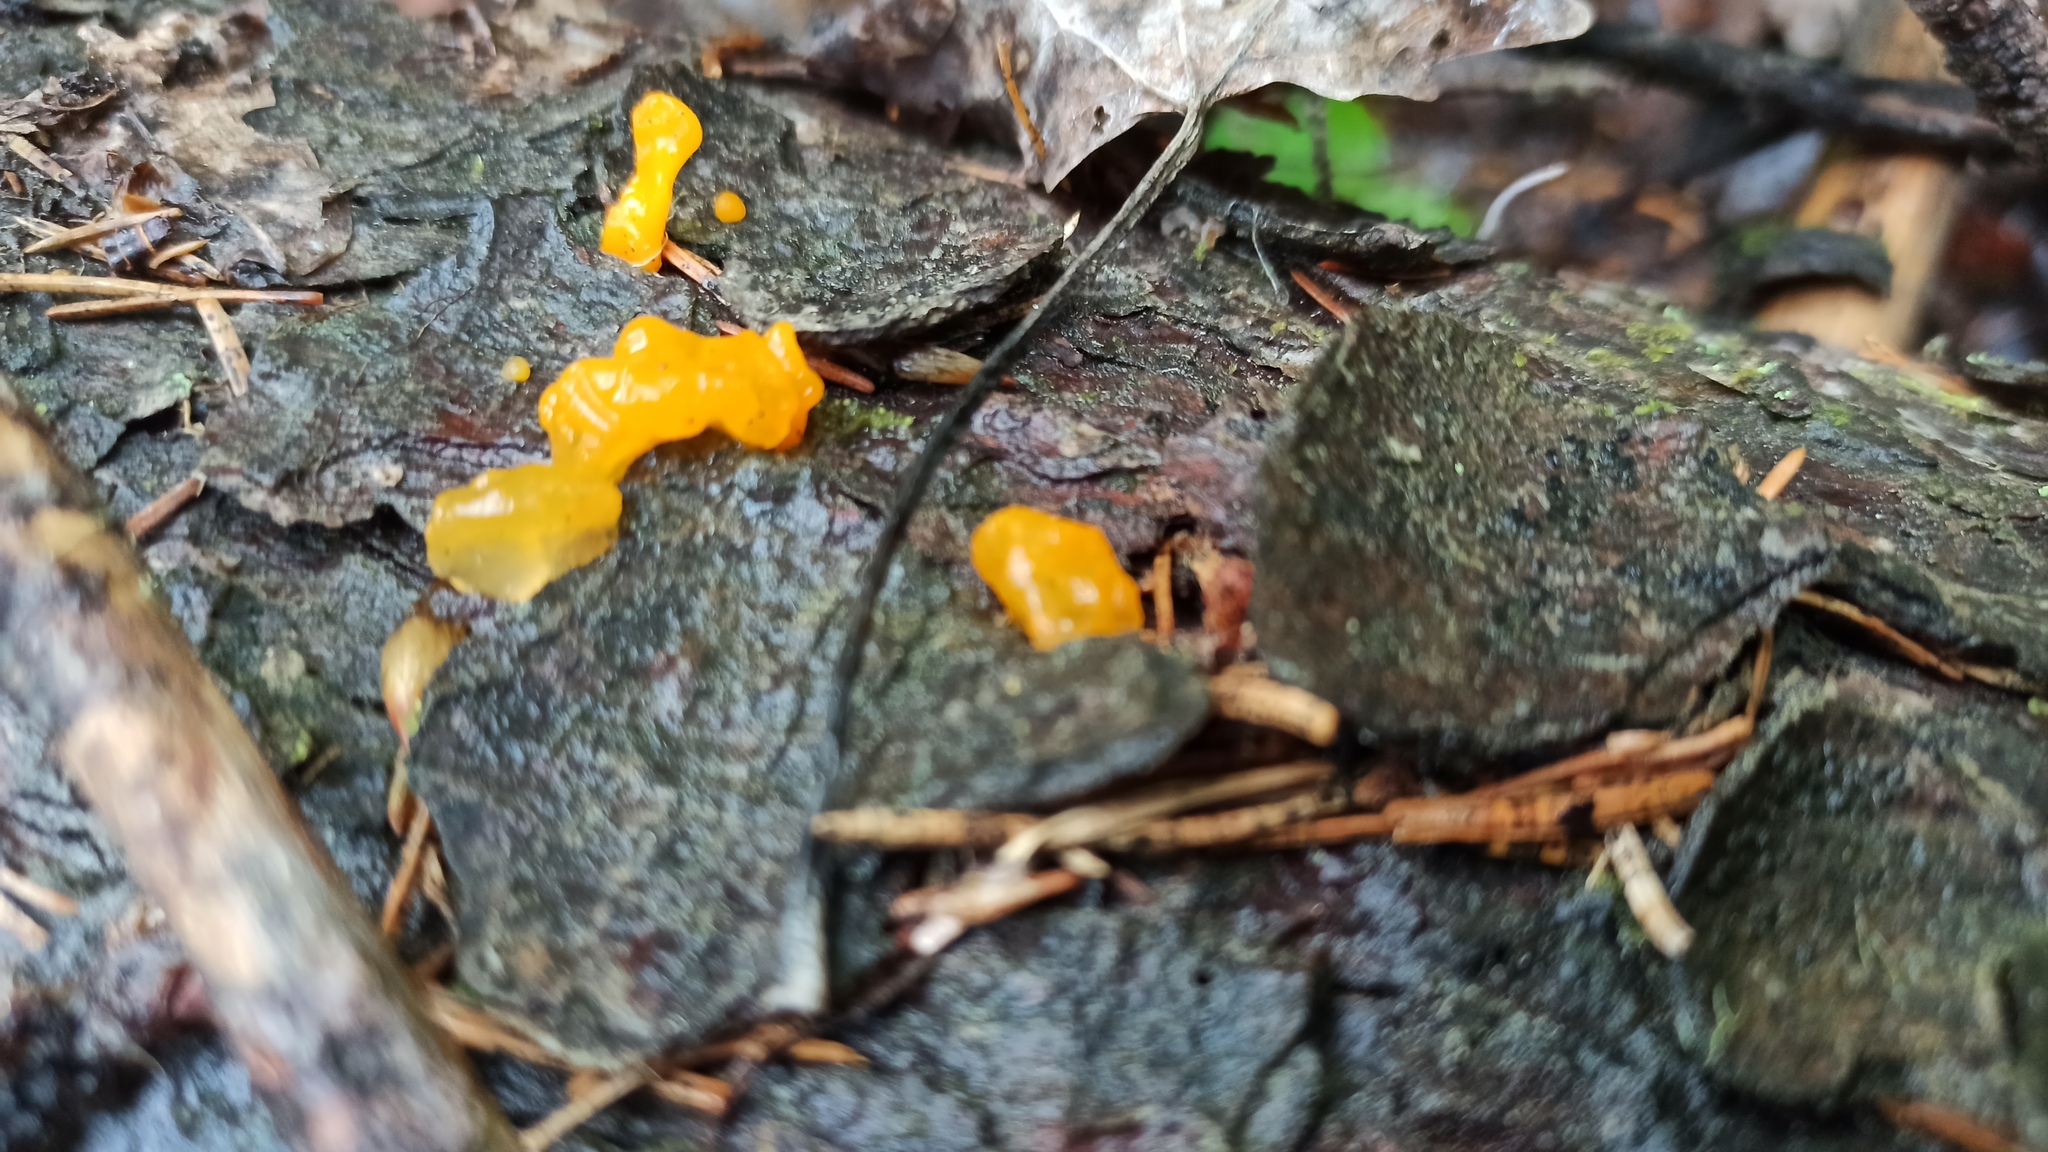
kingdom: Fungi
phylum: Basidiomycota
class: Dacrymycetes
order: Dacrymycetales
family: Dacrymycetaceae
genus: Dacrymyces
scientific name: Dacrymyces chrysospermus
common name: Orange jelly spot
